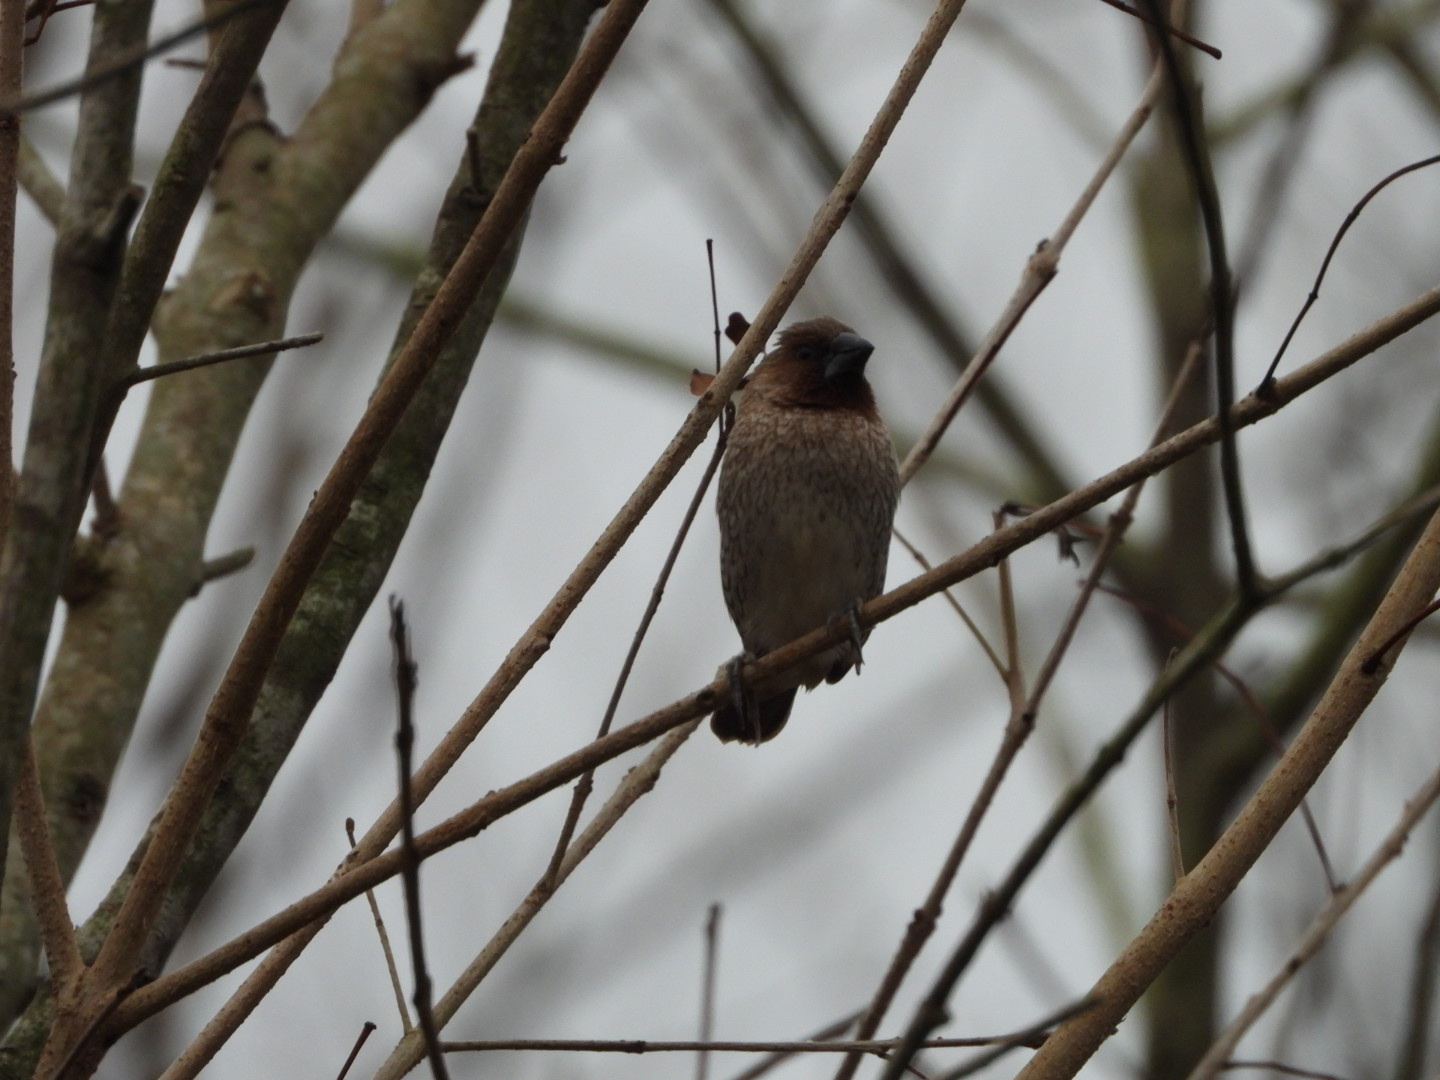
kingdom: Animalia
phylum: Chordata
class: Aves
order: Passeriformes
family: Estrildidae
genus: Lonchura
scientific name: Lonchura punctulata
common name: Scaly-breasted munia
